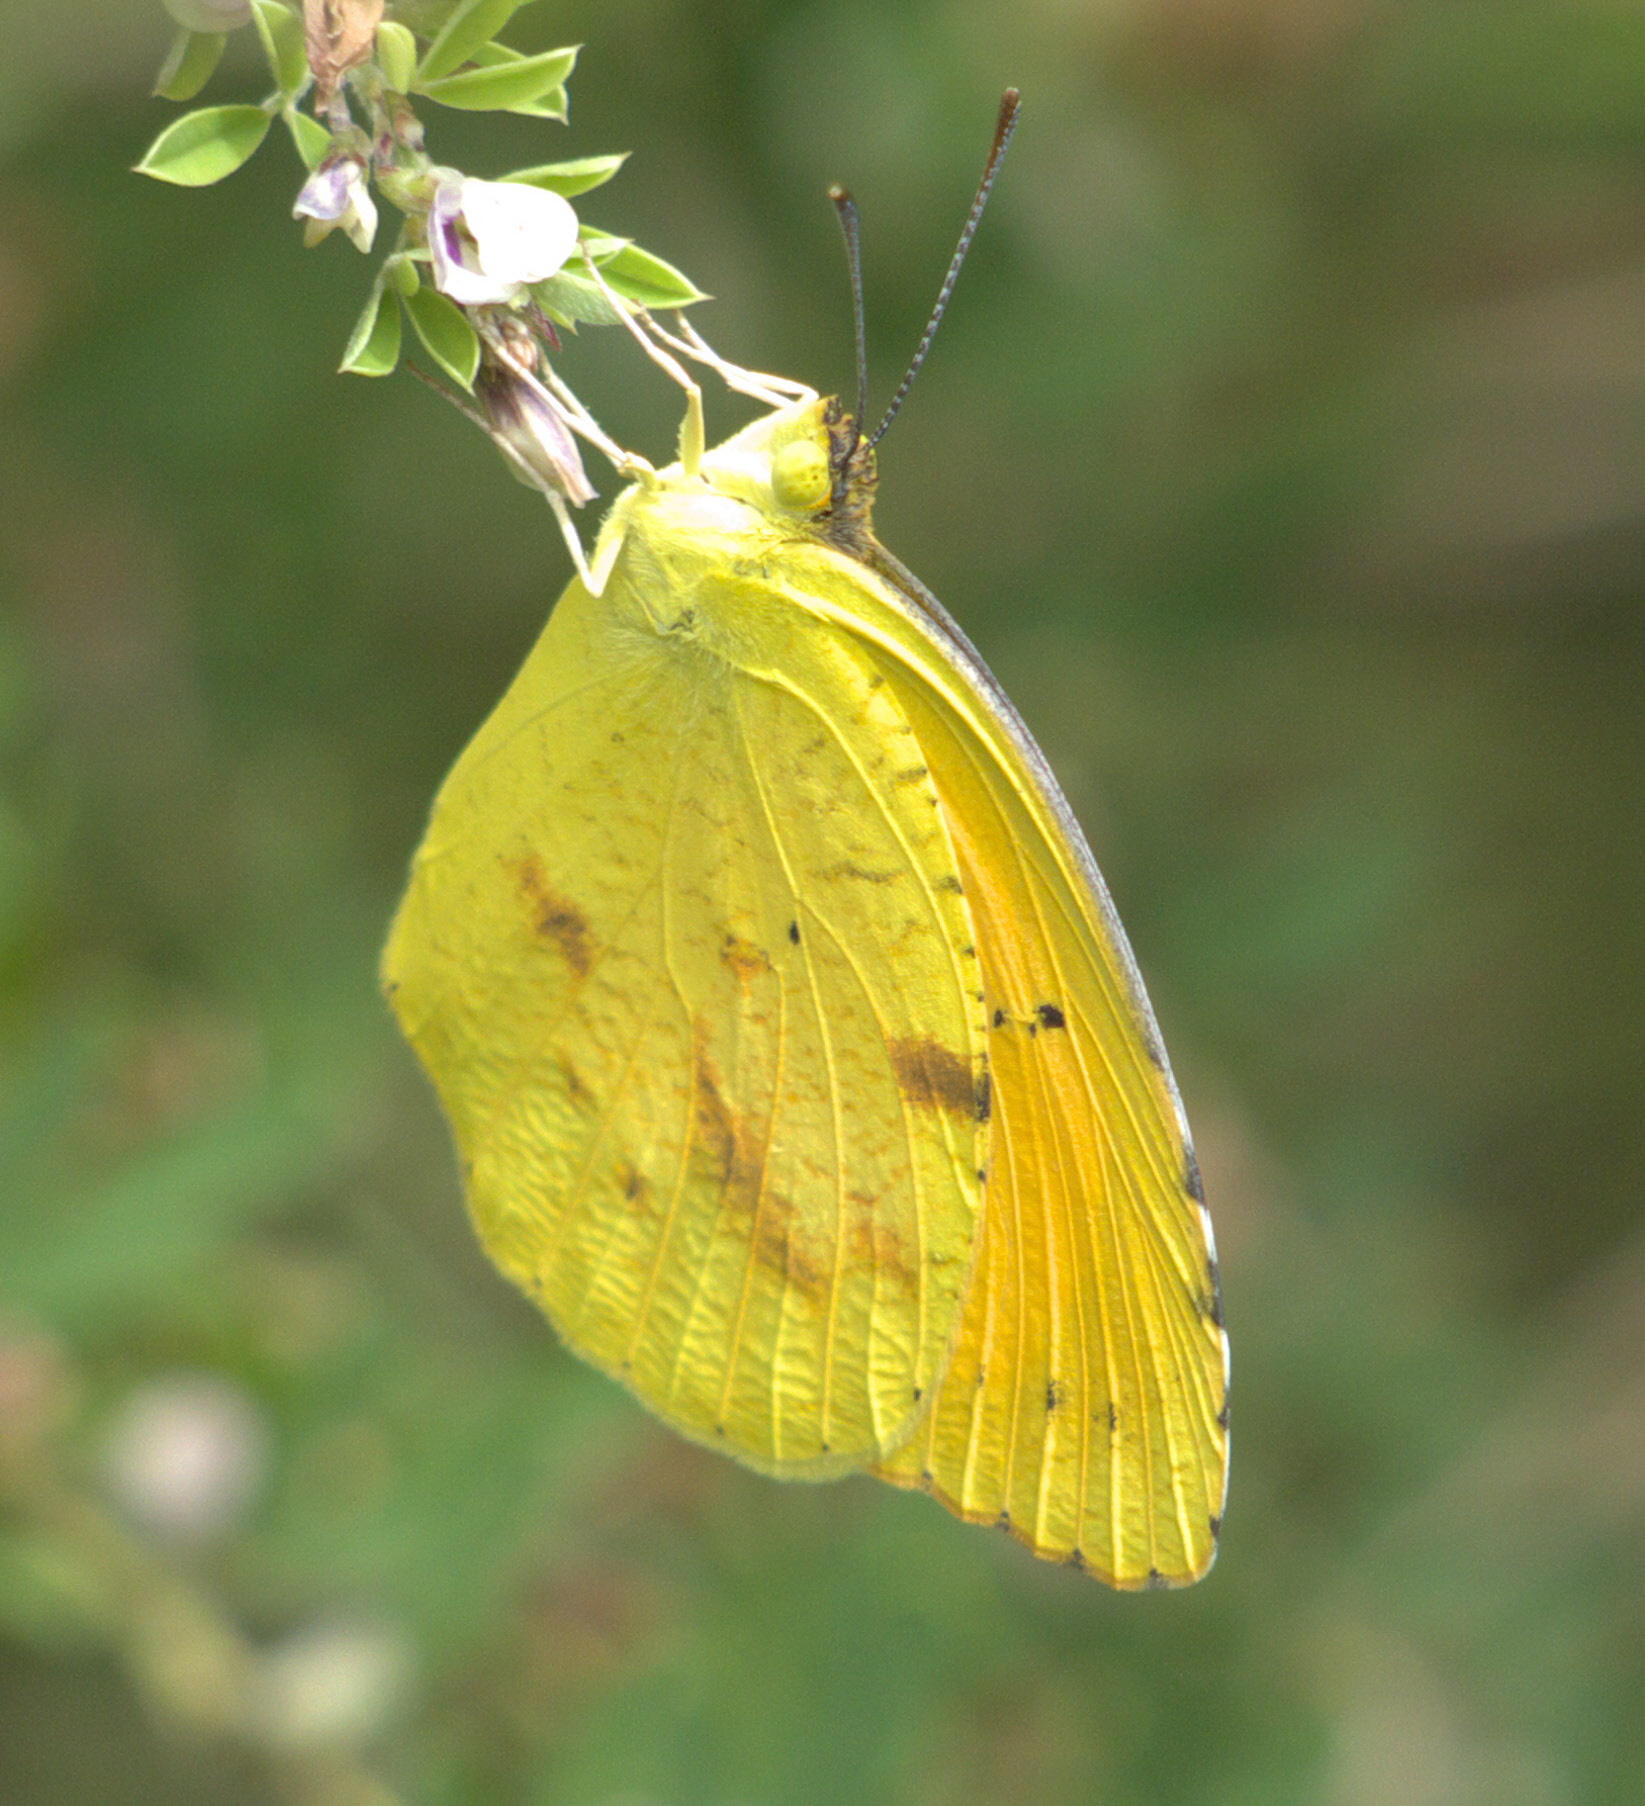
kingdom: Animalia
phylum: Arthropoda
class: Insecta
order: Lepidoptera
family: Pieridae
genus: Abaeis
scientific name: Abaeis nicippe
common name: Sleepy orange
